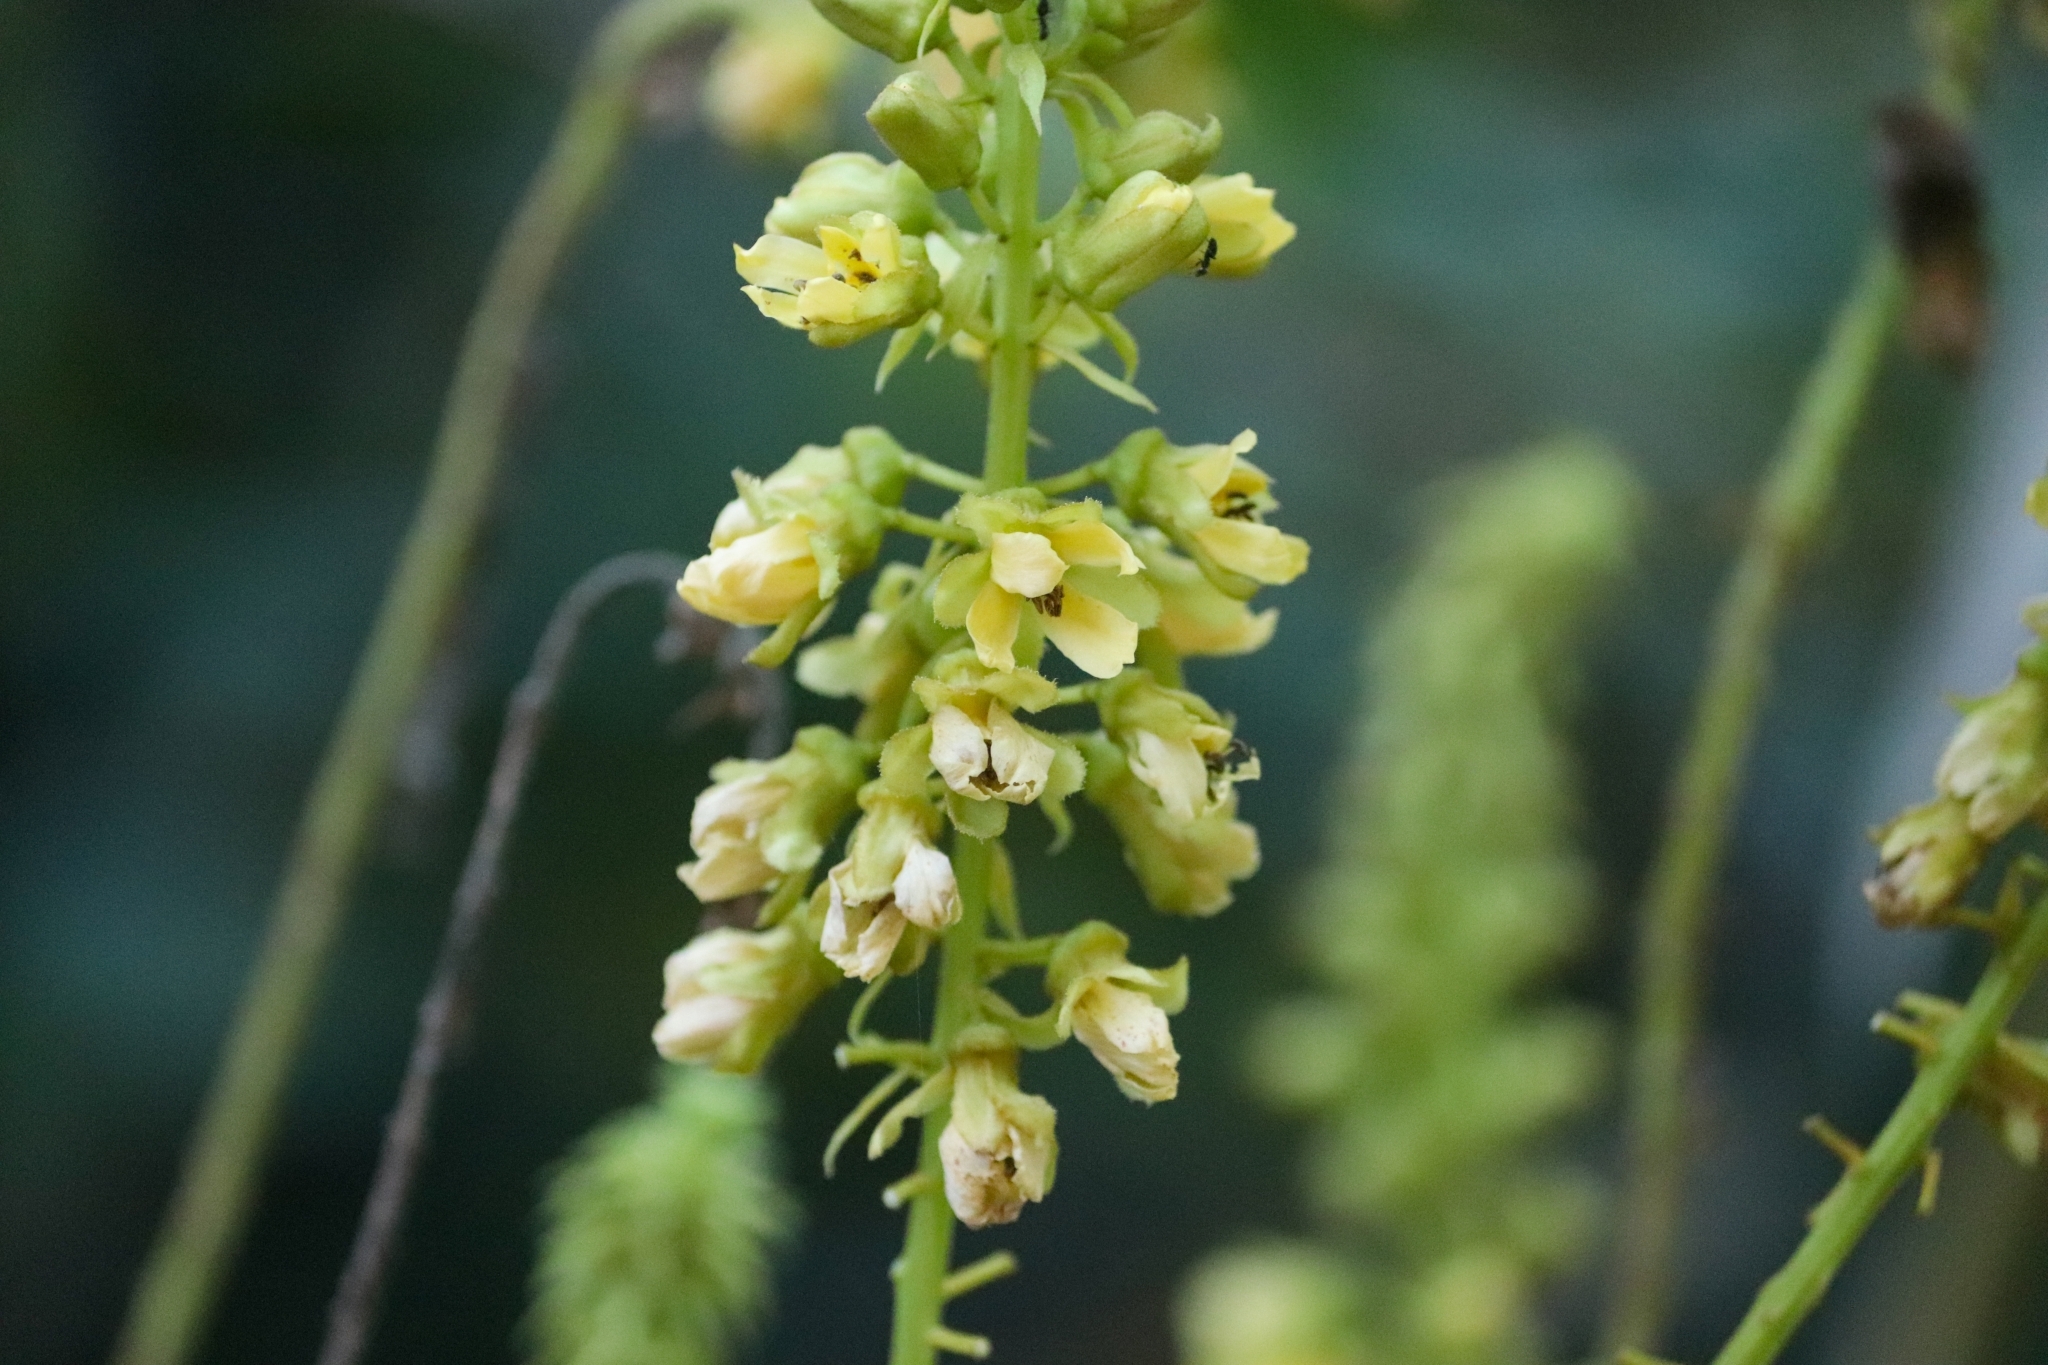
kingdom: Plantae
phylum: Tracheophyta
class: Magnoliopsida
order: Fabales
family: Fabaceae
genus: Guilandina
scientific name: Guilandina bonduc
